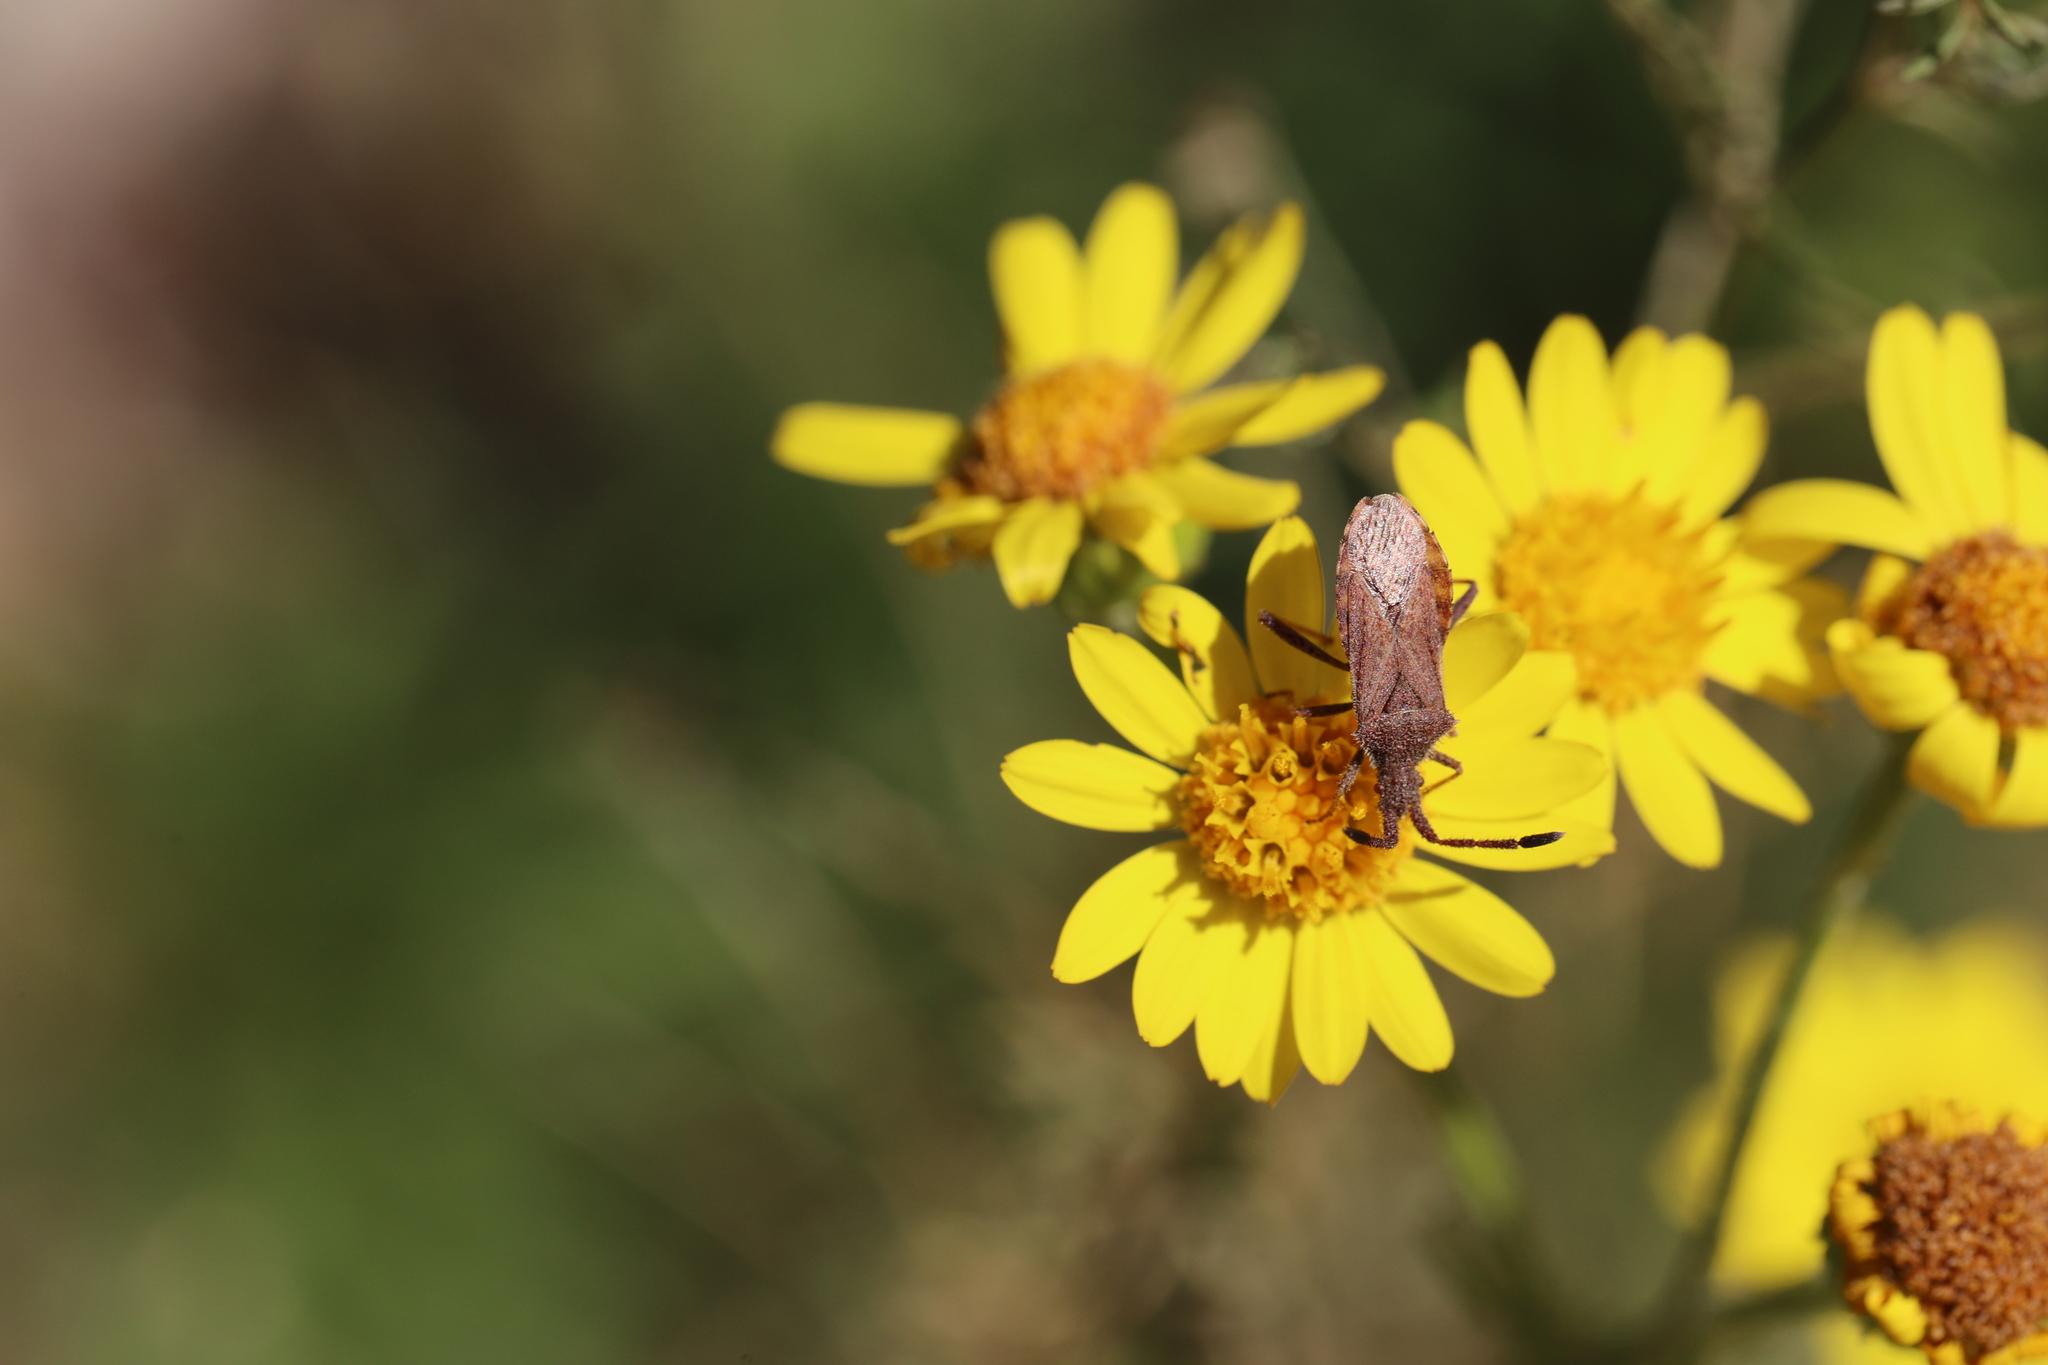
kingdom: Animalia
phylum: Arthropoda
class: Insecta
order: Hemiptera
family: Coreidae
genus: Coriomeris
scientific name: Coriomeris denticulatus
